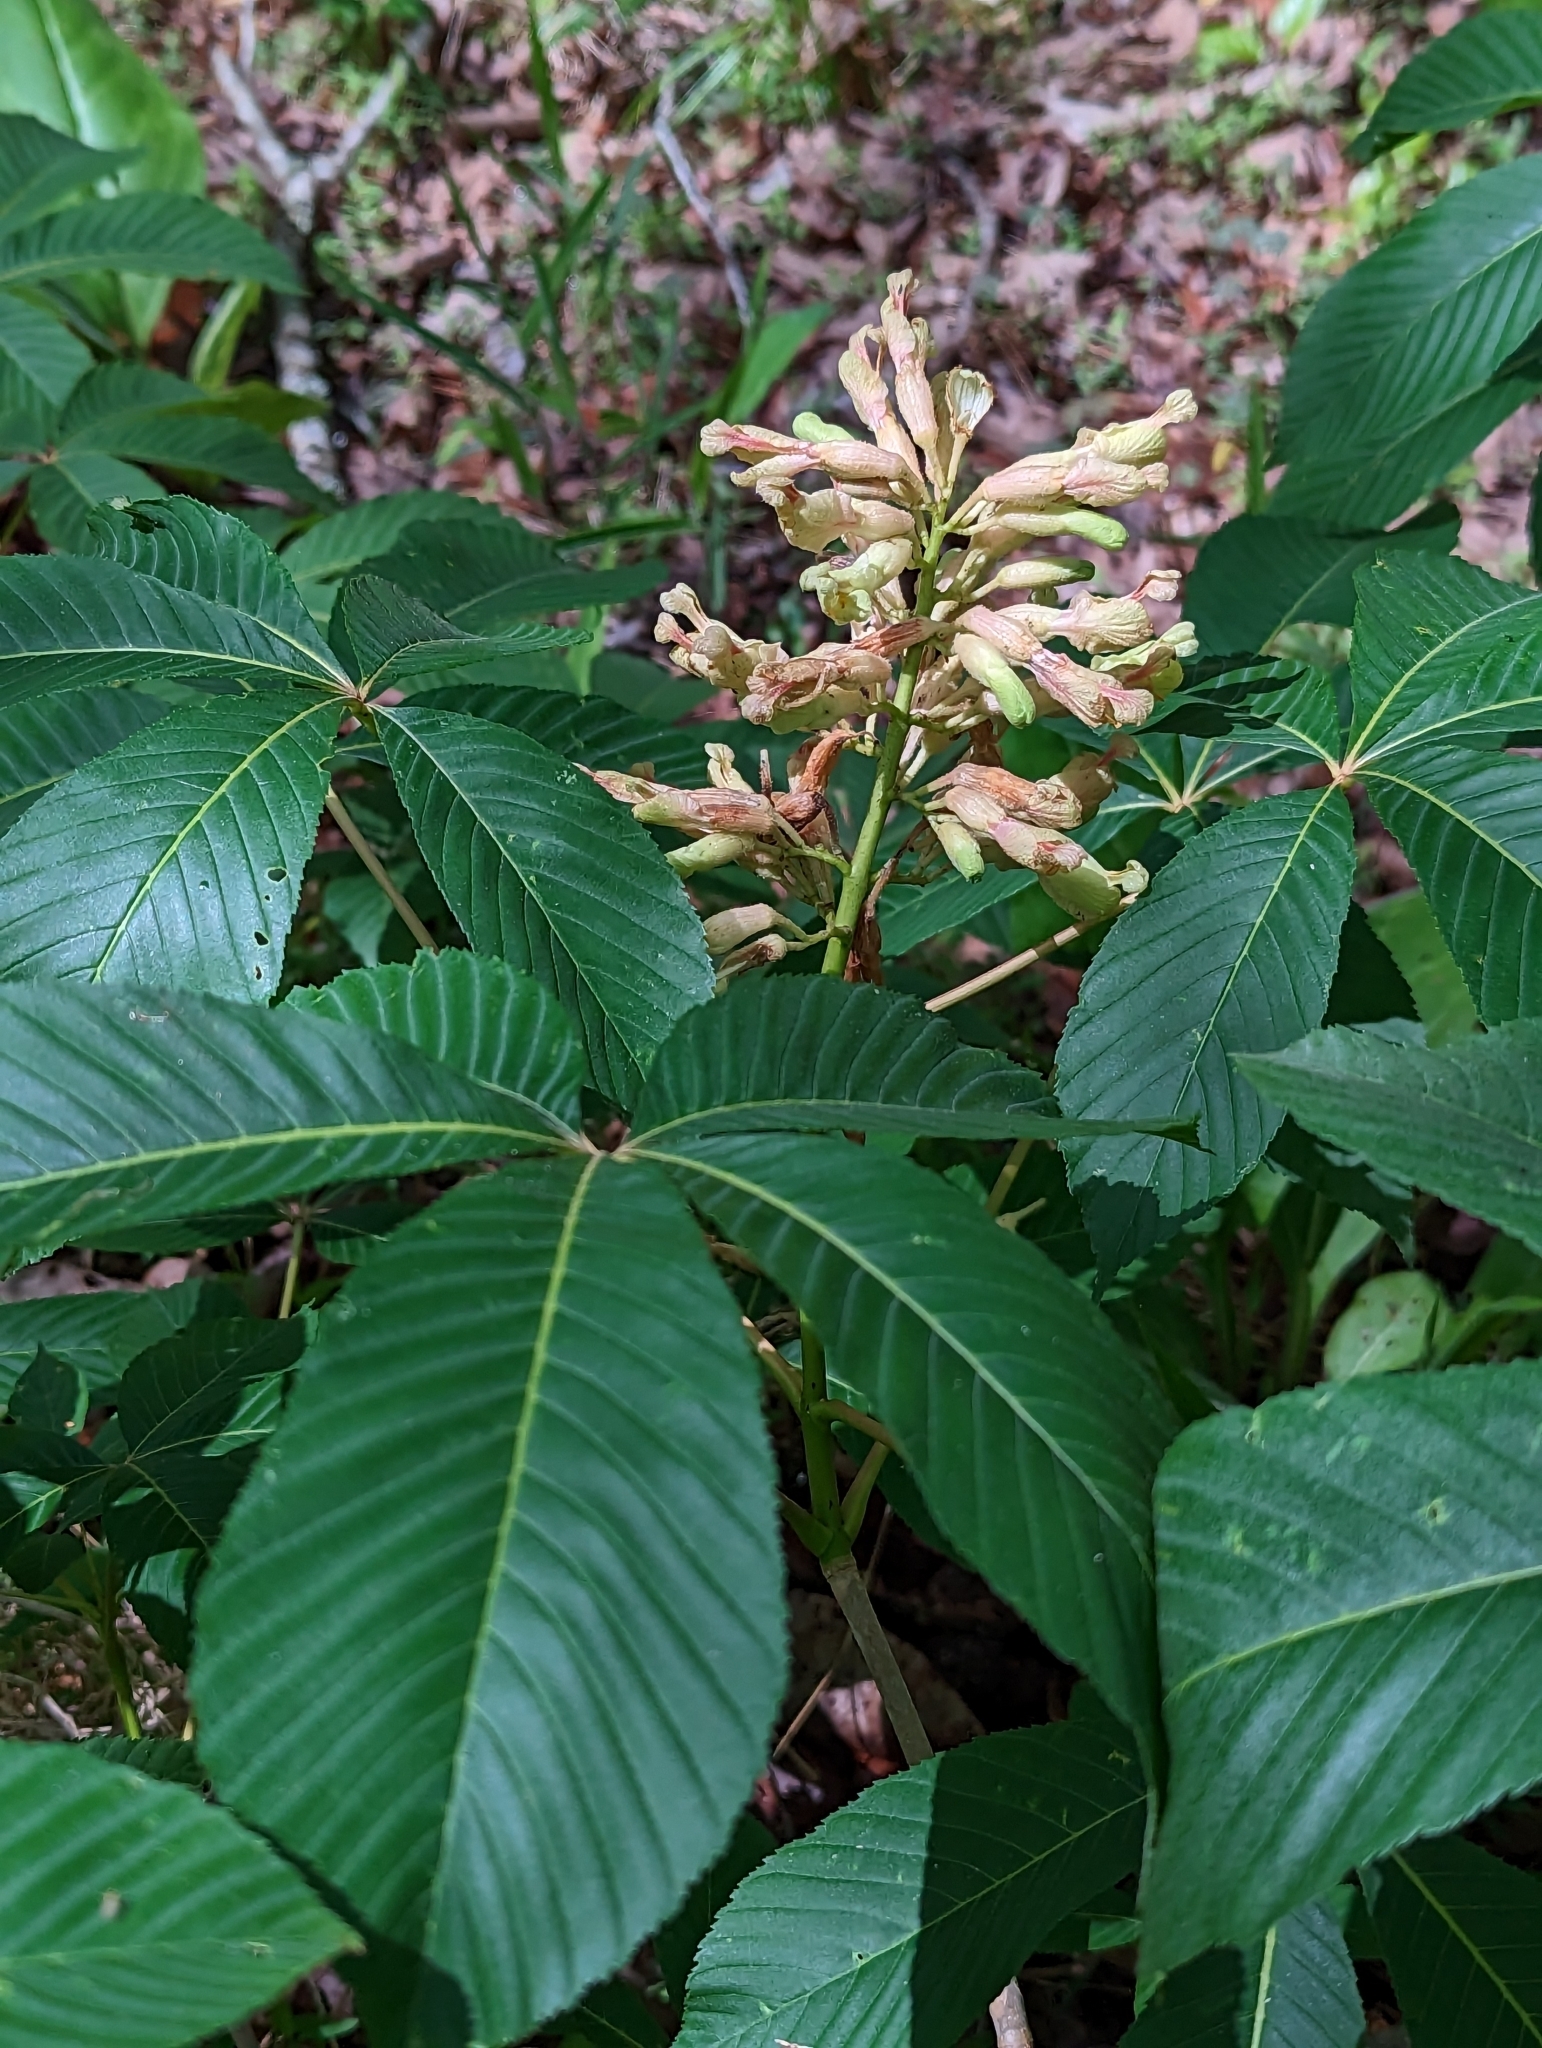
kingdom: Plantae
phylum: Tracheophyta
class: Magnoliopsida
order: Sapindales
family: Sapindaceae
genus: Aesculus
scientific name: Aesculus sylvatica
